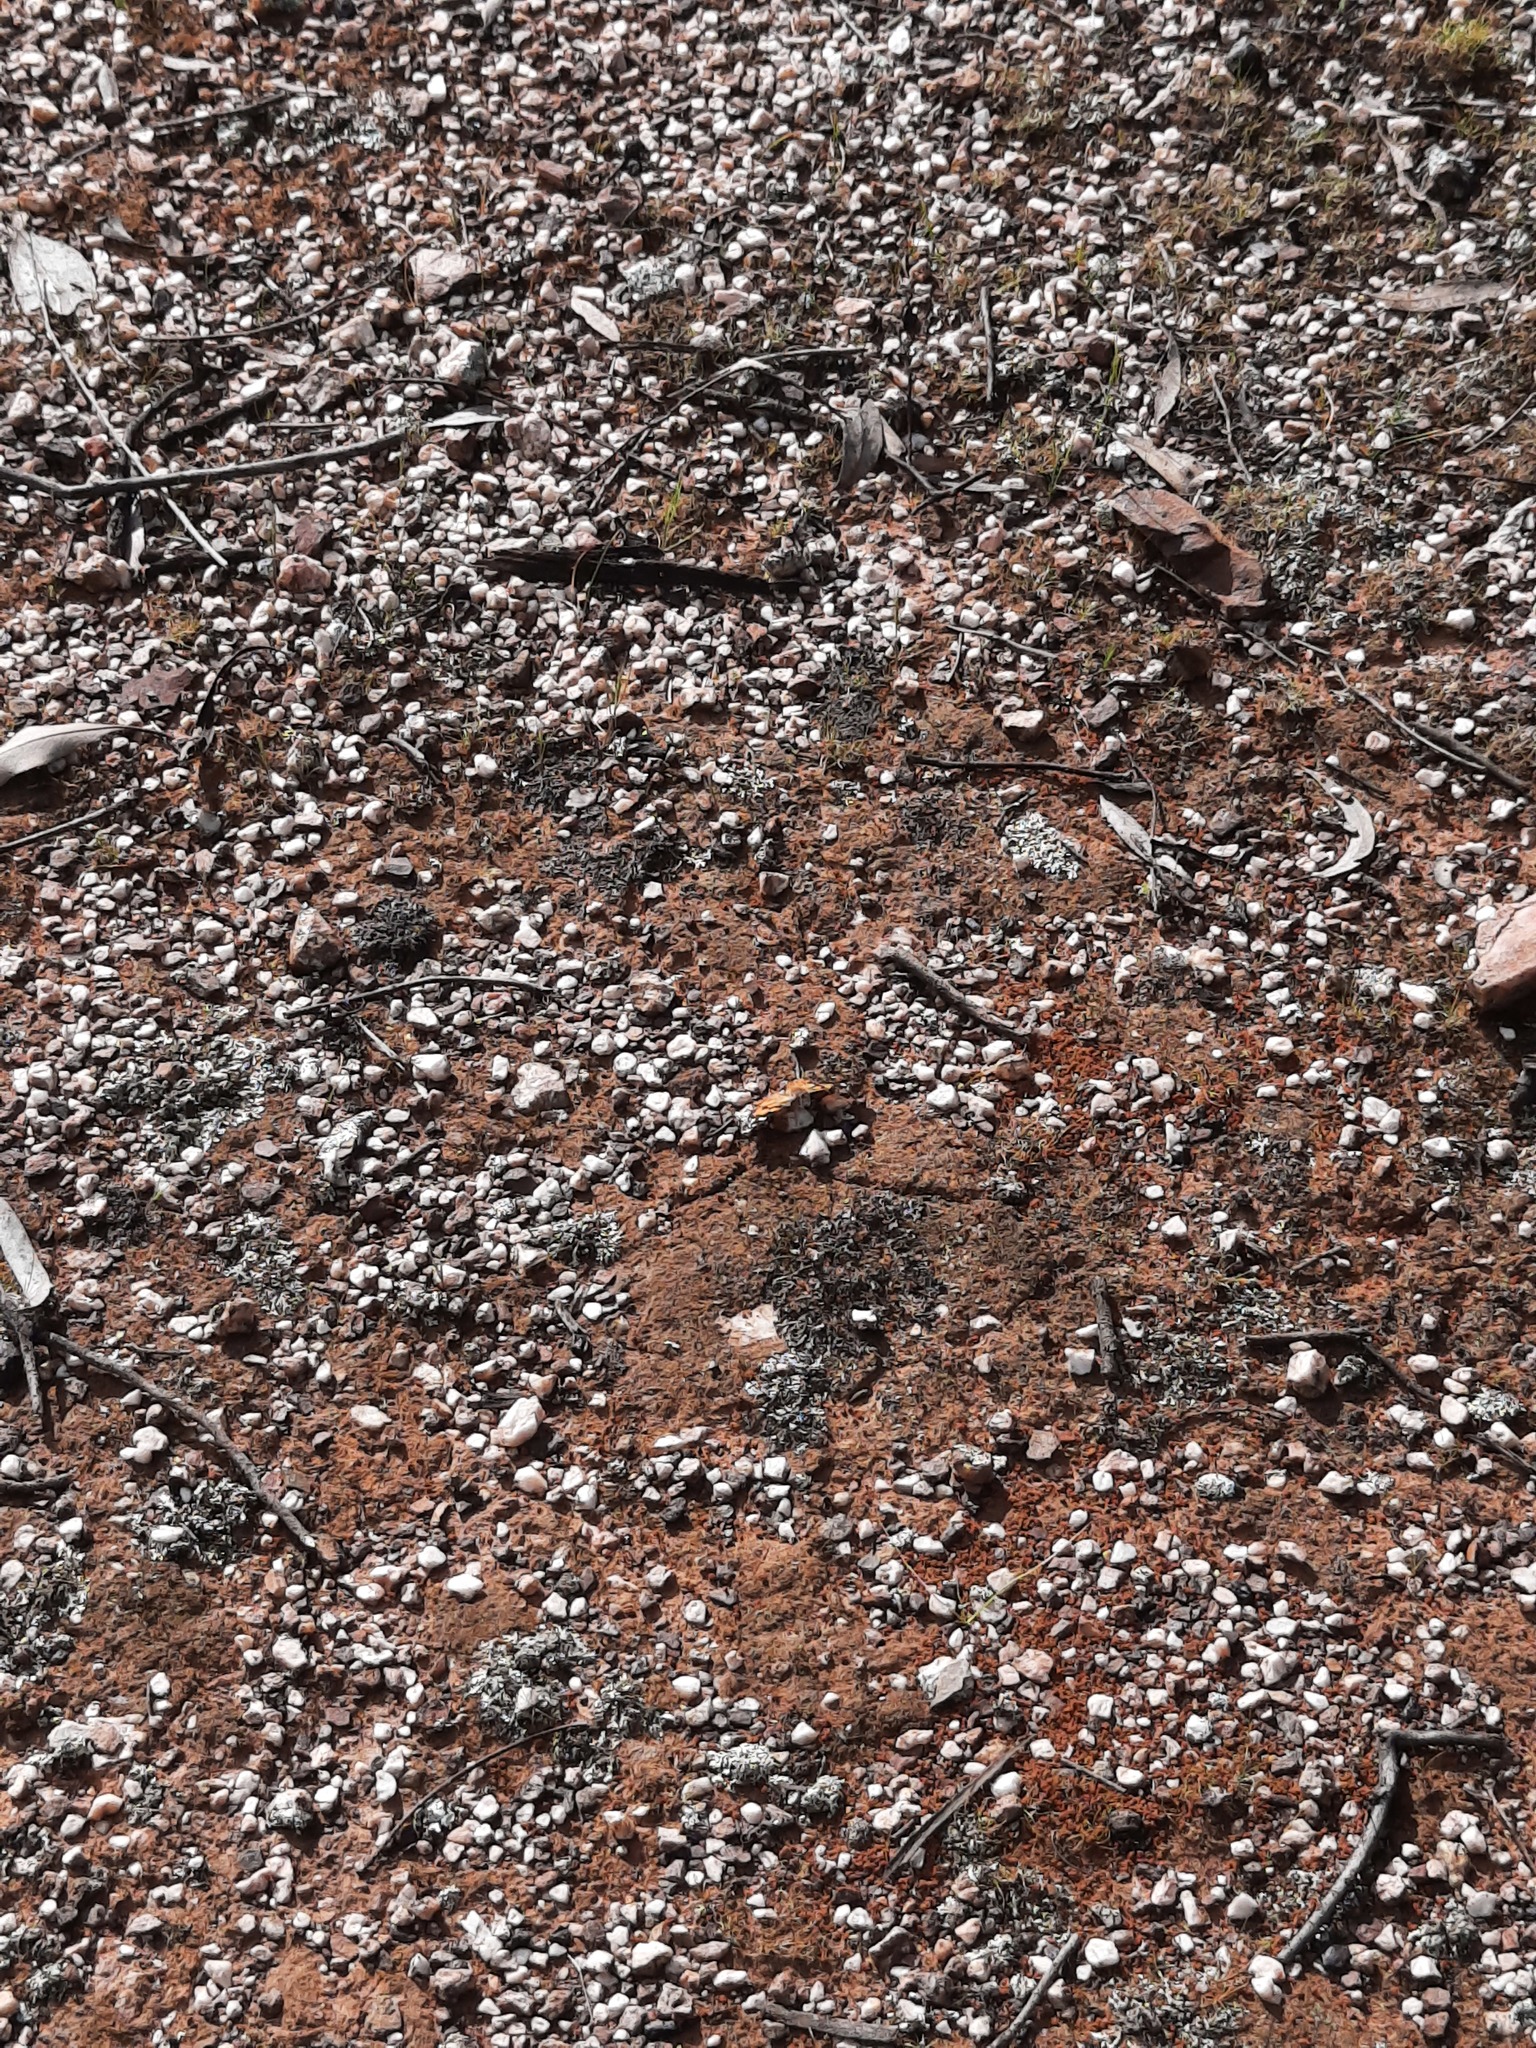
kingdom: Animalia
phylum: Arthropoda
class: Insecta
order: Lepidoptera
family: Nymphalidae
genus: Vanessa
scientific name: Vanessa kershawi
